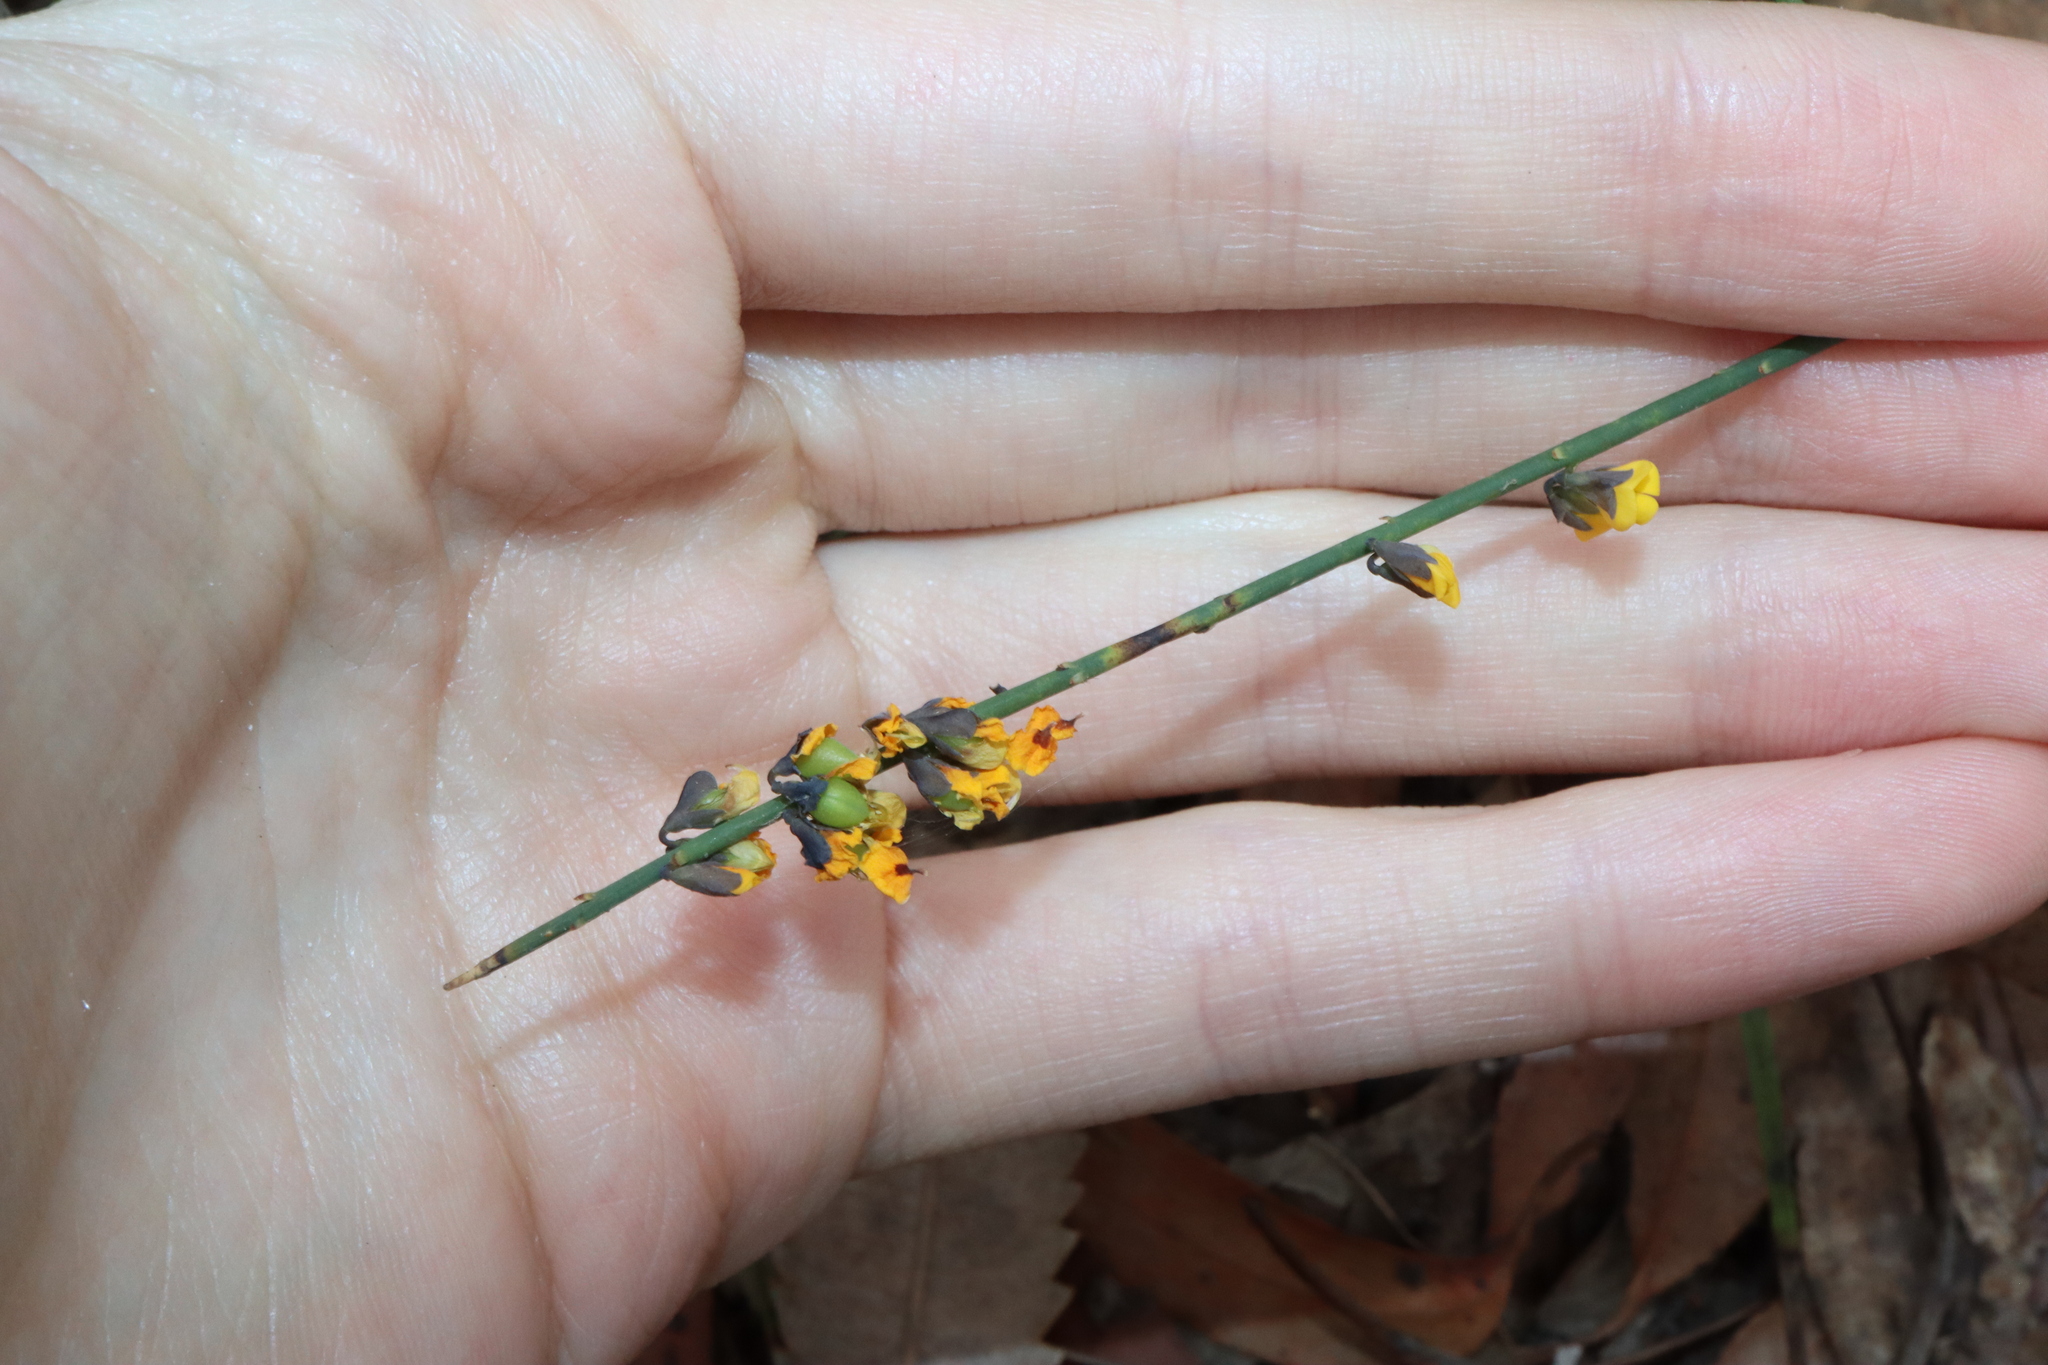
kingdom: Plantae
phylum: Tracheophyta
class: Magnoliopsida
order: Fabales
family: Fabaceae
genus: Sphaerolobium
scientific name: Sphaerolobium minus
